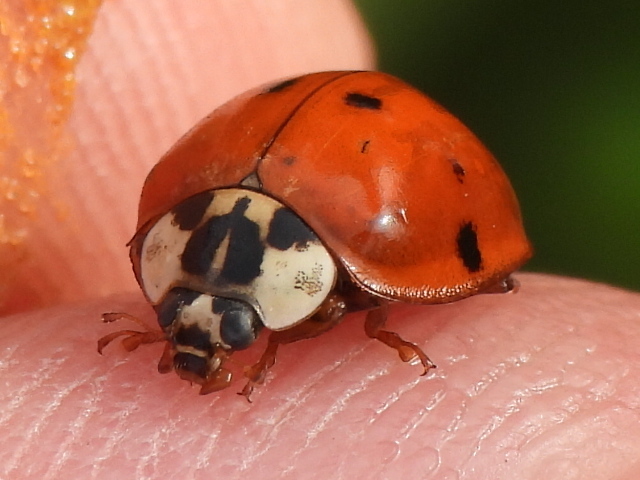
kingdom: Animalia
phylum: Arthropoda
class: Insecta
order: Coleoptera
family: Coccinellidae
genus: Harmonia
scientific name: Harmonia axyridis
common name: Harlequin ladybird
